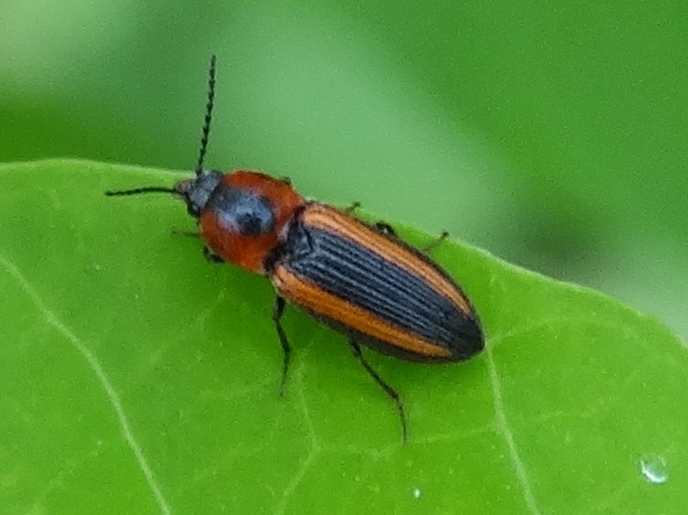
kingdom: Animalia
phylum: Arthropoda
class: Insecta
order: Coleoptera
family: Elateridae
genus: Cardiophorus
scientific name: Cardiophorus
